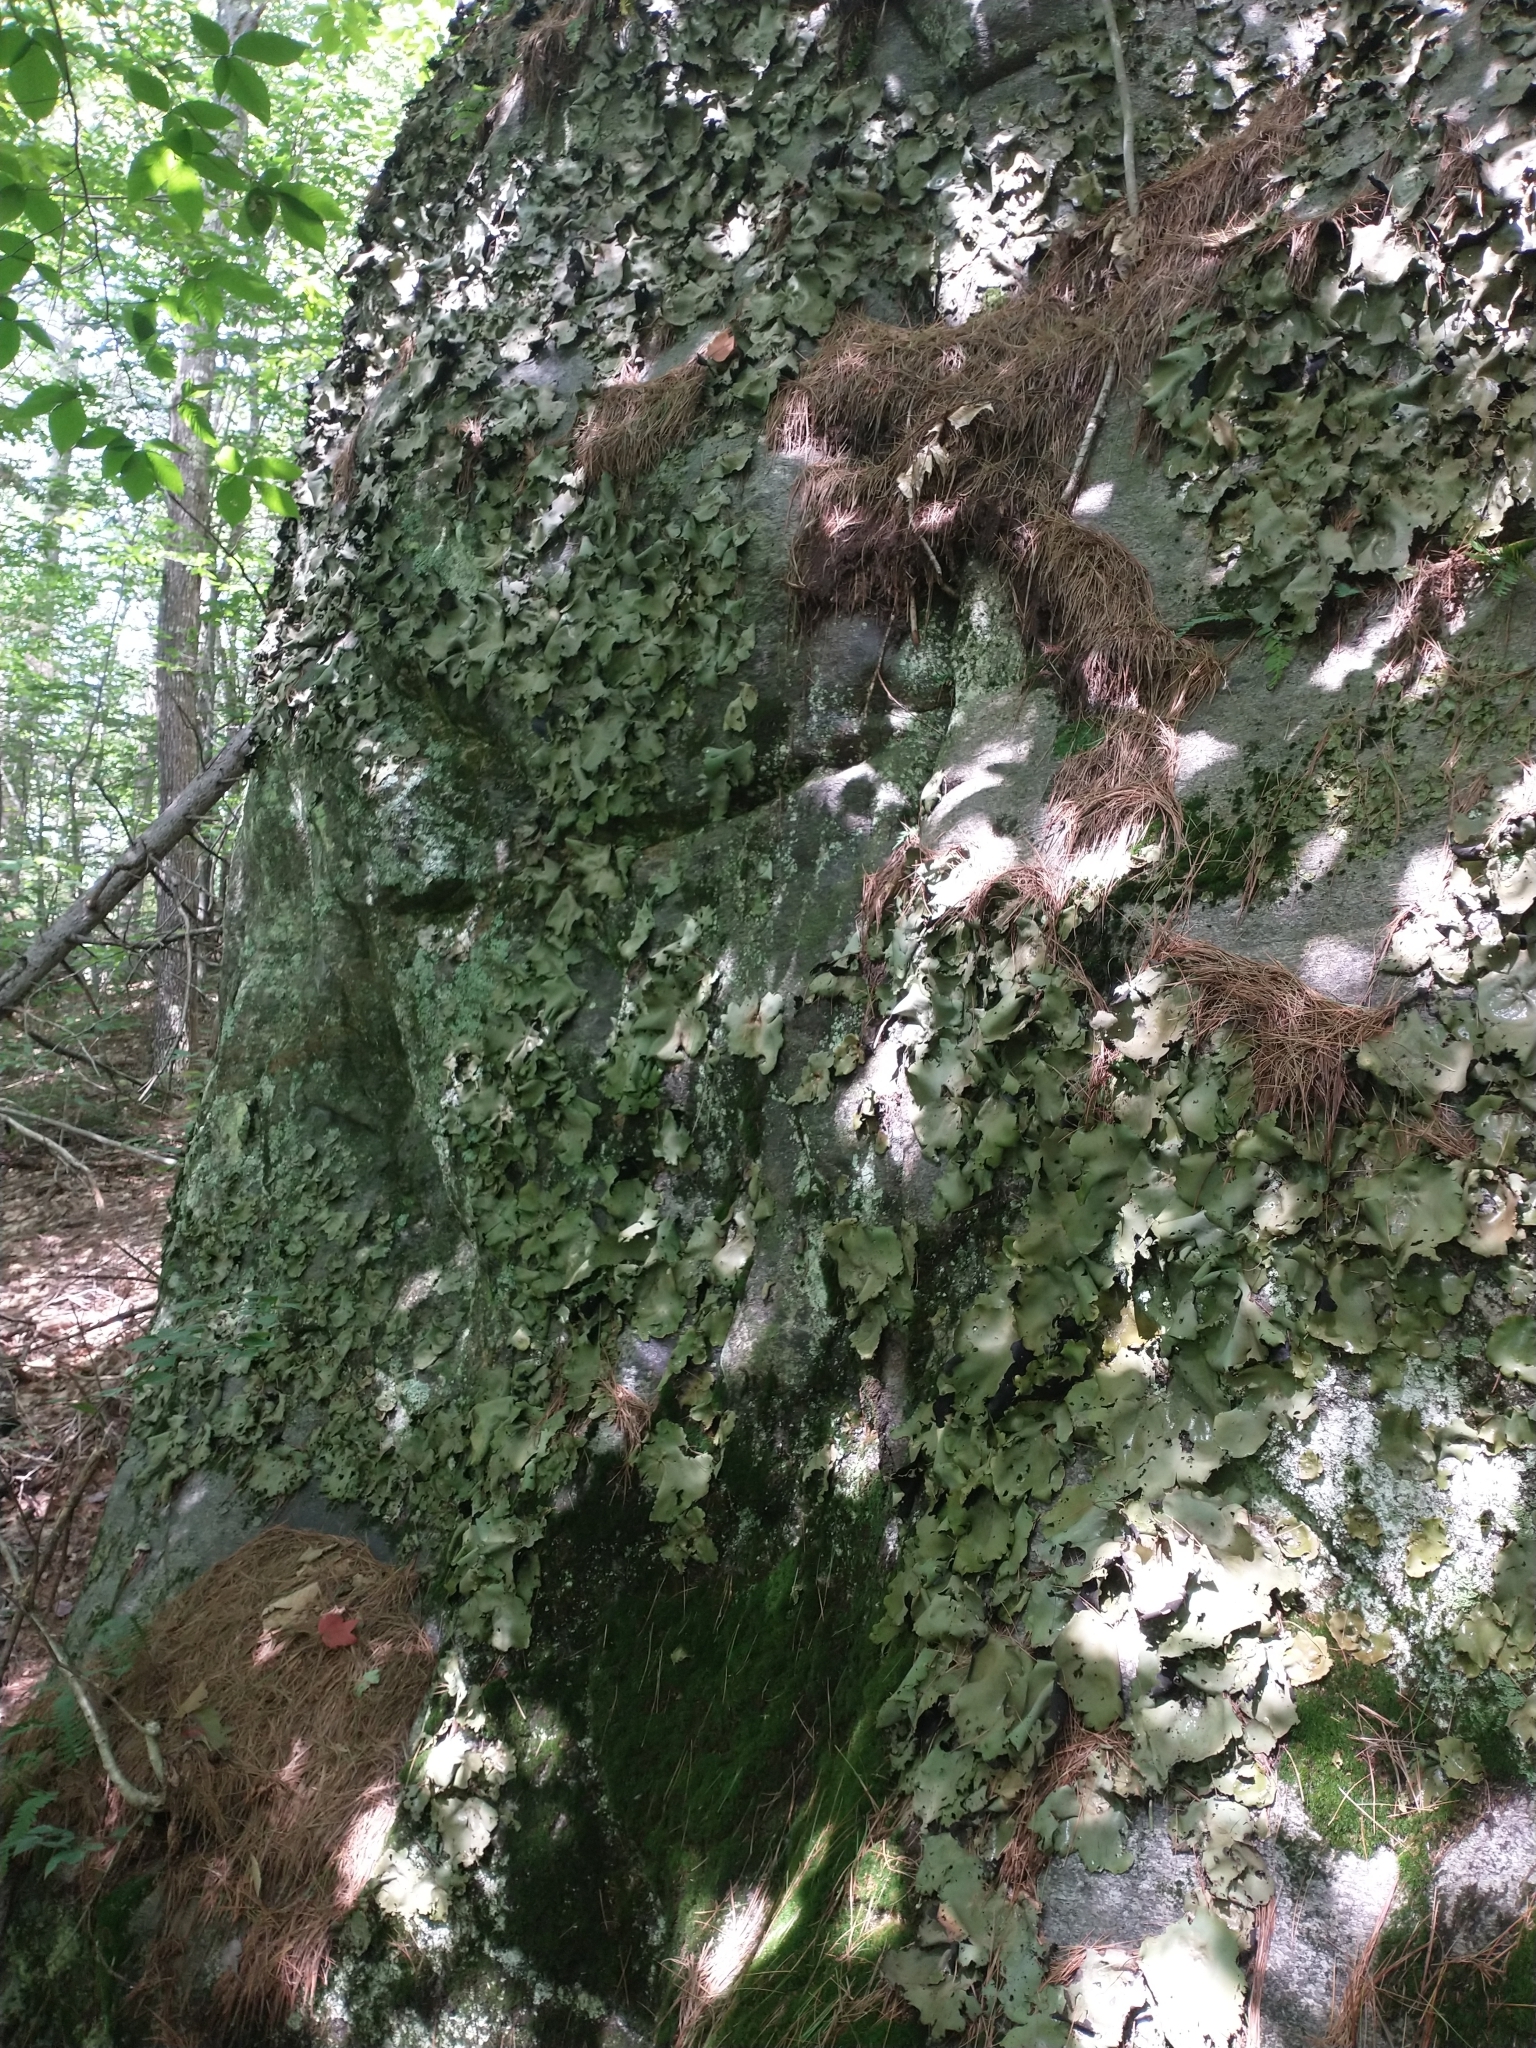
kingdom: Fungi
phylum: Ascomycota
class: Lecanoromycetes
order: Umbilicariales
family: Umbilicariaceae
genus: Umbilicaria
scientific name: Umbilicaria mammulata
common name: Smooth rock tripe
